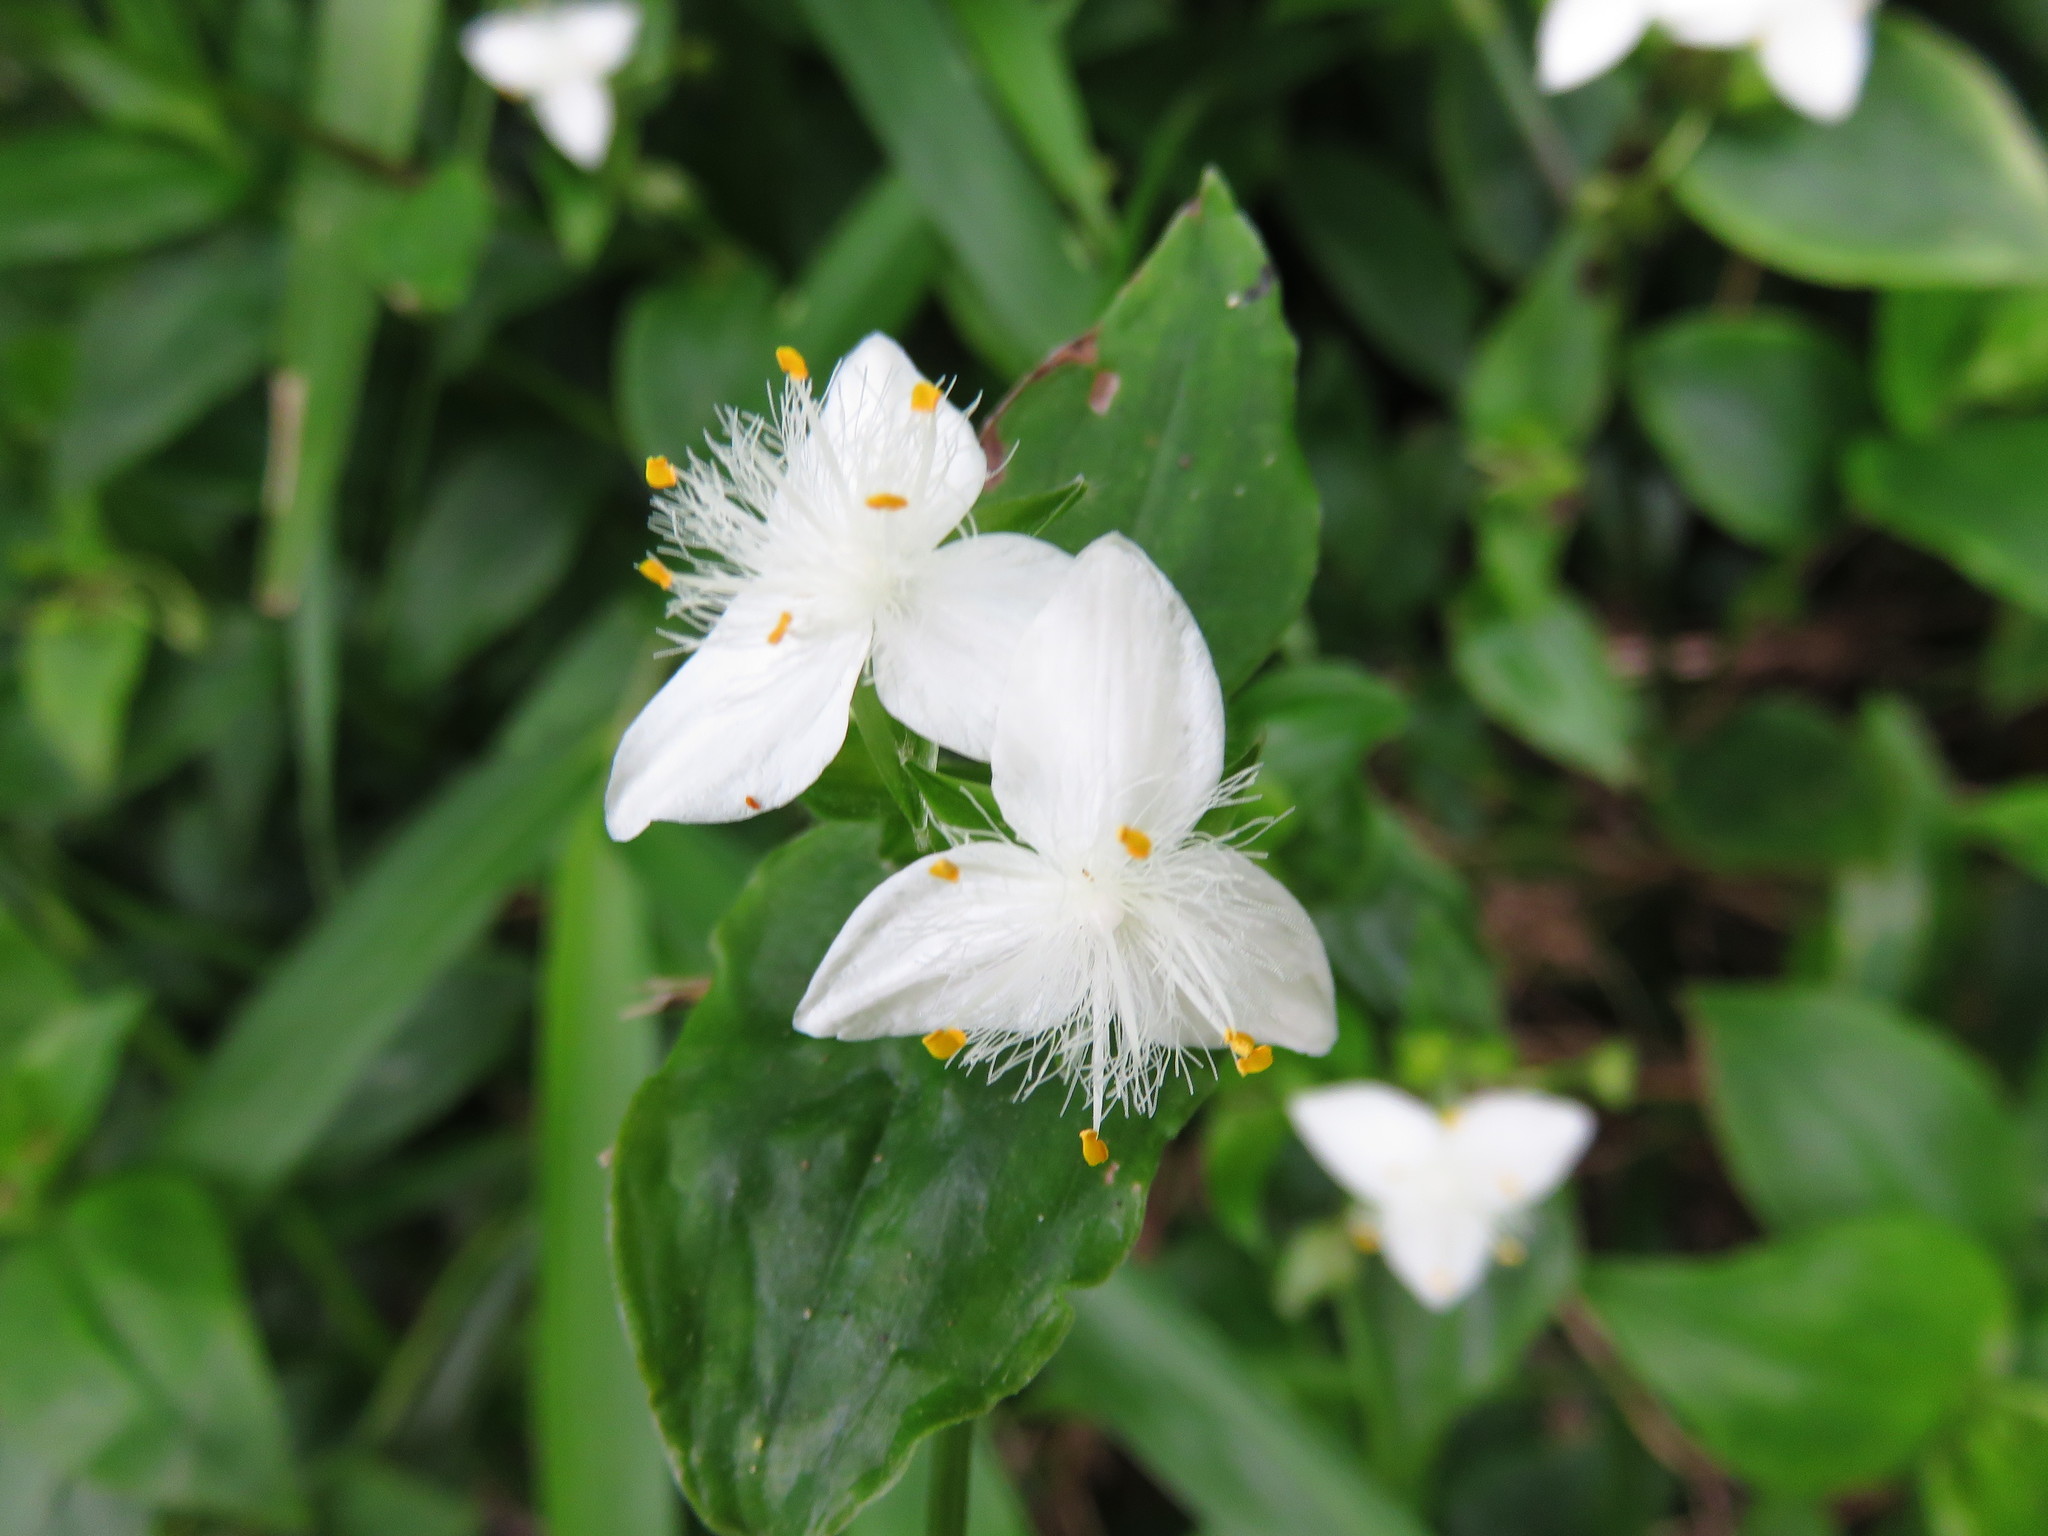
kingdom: Plantae
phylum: Tracheophyta
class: Liliopsida
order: Commelinales
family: Commelinaceae
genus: Tradescantia
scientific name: Tradescantia fluminensis
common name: Wandering-jew
